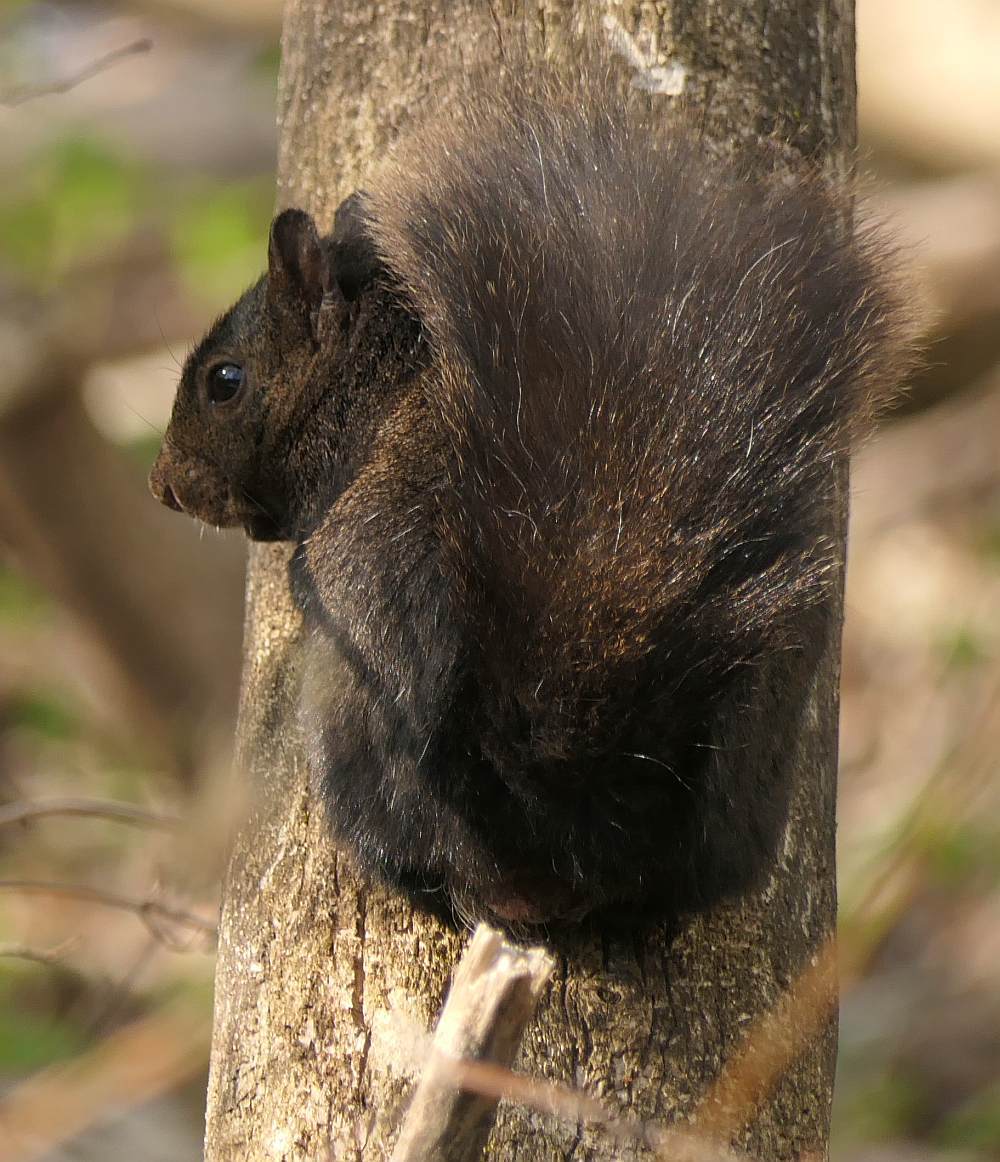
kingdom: Animalia
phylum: Chordata
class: Mammalia
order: Rodentia
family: Sciuridae
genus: Sciurus
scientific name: Sciurus carolinensis
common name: Eastern gray squirrel
